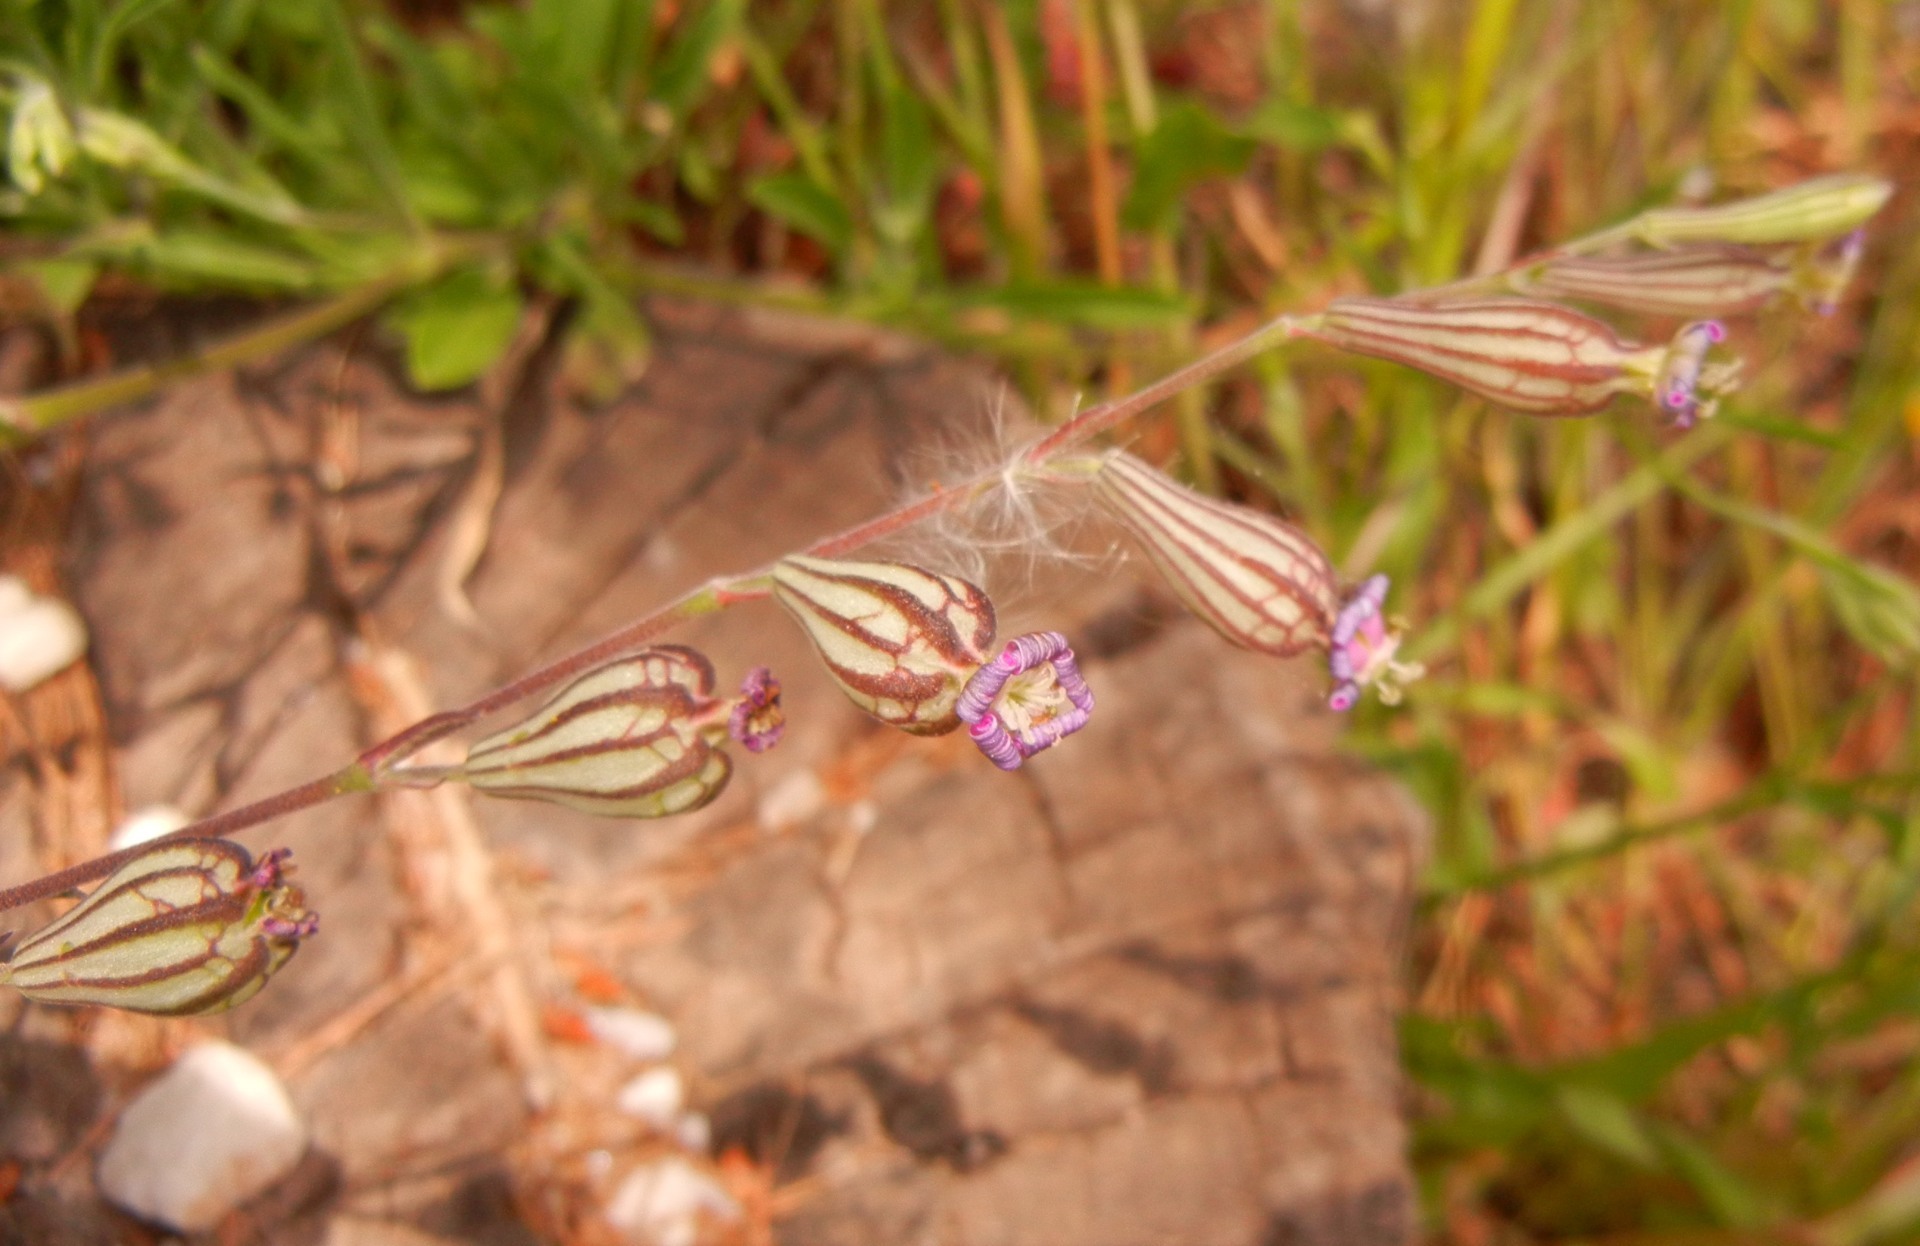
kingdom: Plantae
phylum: Tracheophyta
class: Magnoliopsida
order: Caryophyllales
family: Caryophyllaceae
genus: Silene
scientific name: Silene secundiflora
